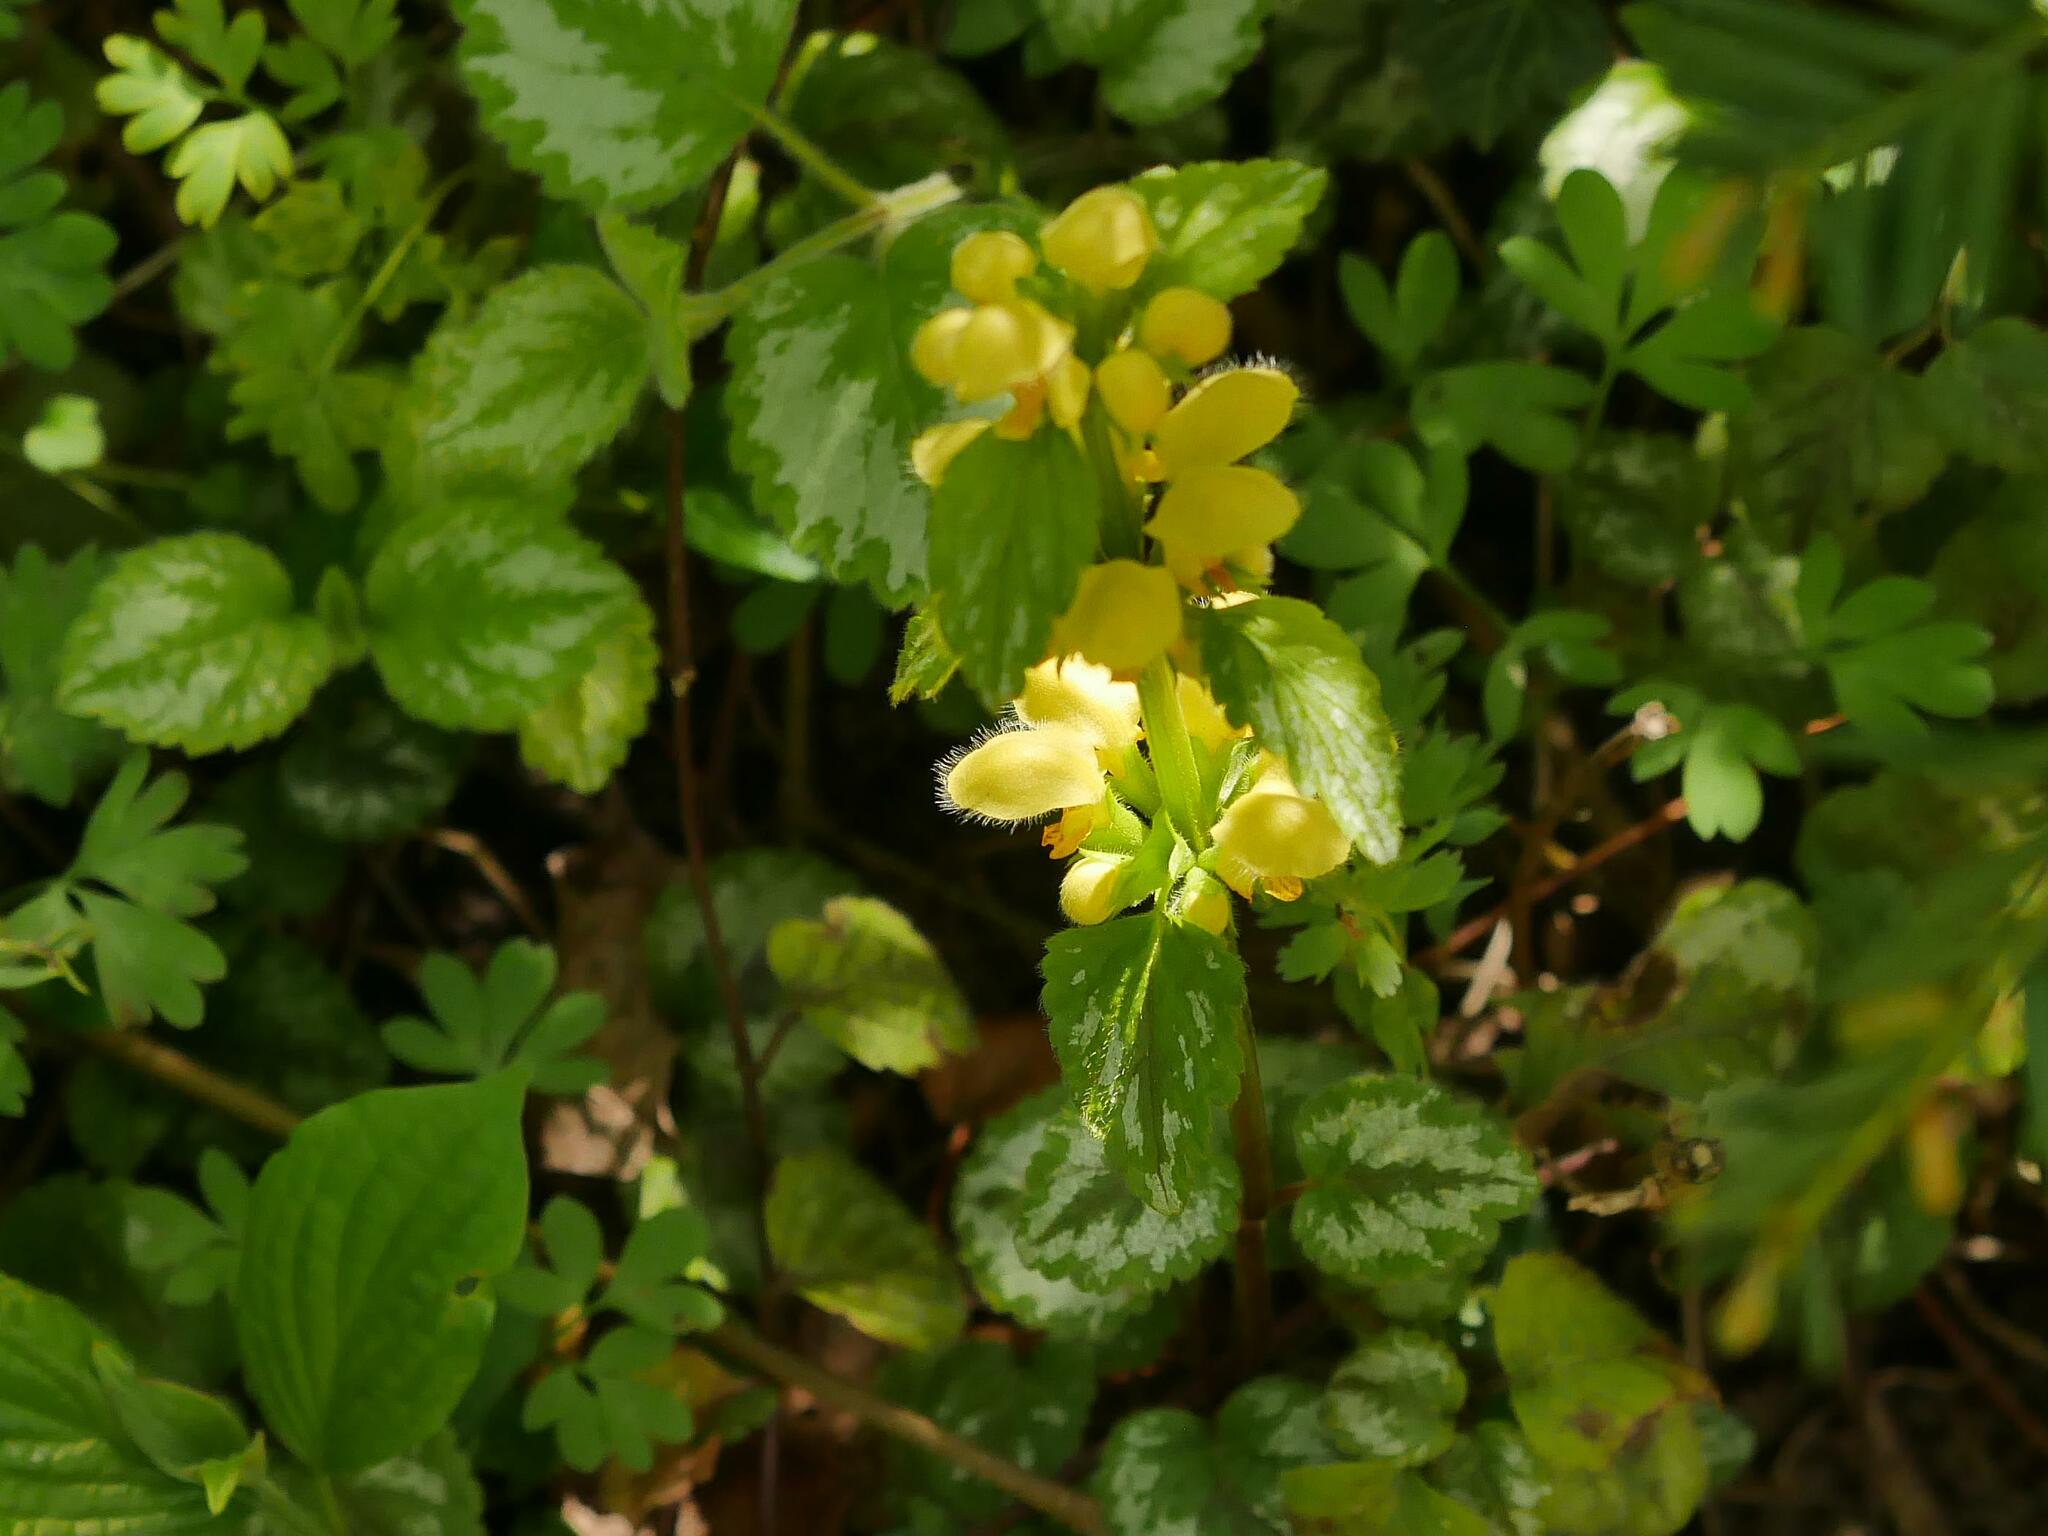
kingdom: Plantae
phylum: Tracheophyta
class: Magnoliopsida
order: Lamiales
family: Lamiaceae
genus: Lamium
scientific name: Lamium galeobdolon
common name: Yellow archangel
